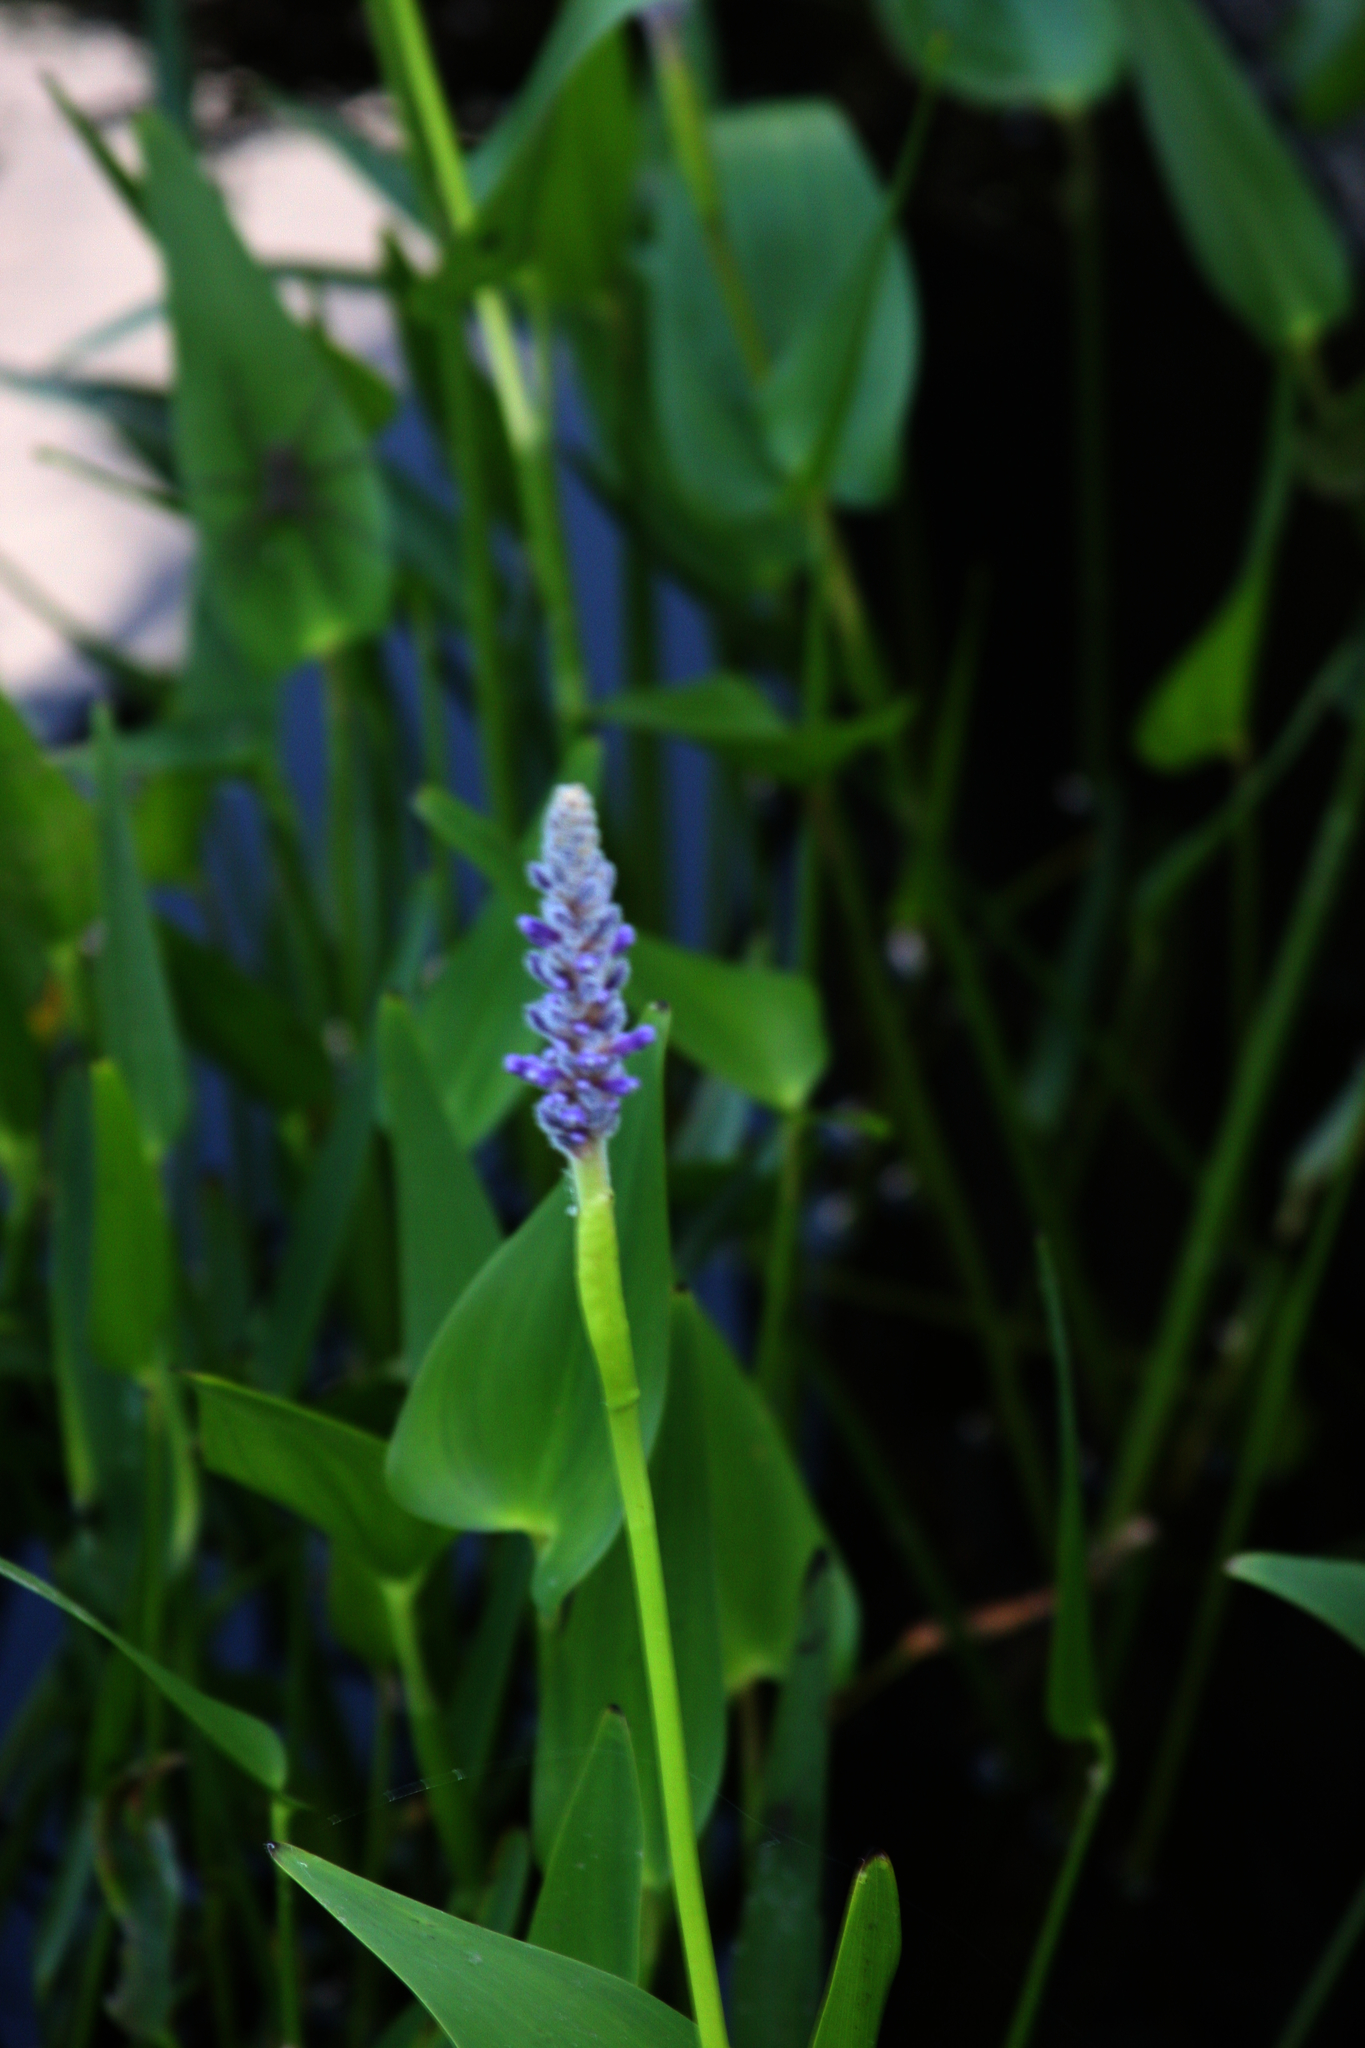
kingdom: Plantae
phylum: Tracheophyta
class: Liliopsida
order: Commelinales
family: Pontederiaceae
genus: Pontederia
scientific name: Pontederia cordata
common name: Pickerelweed
